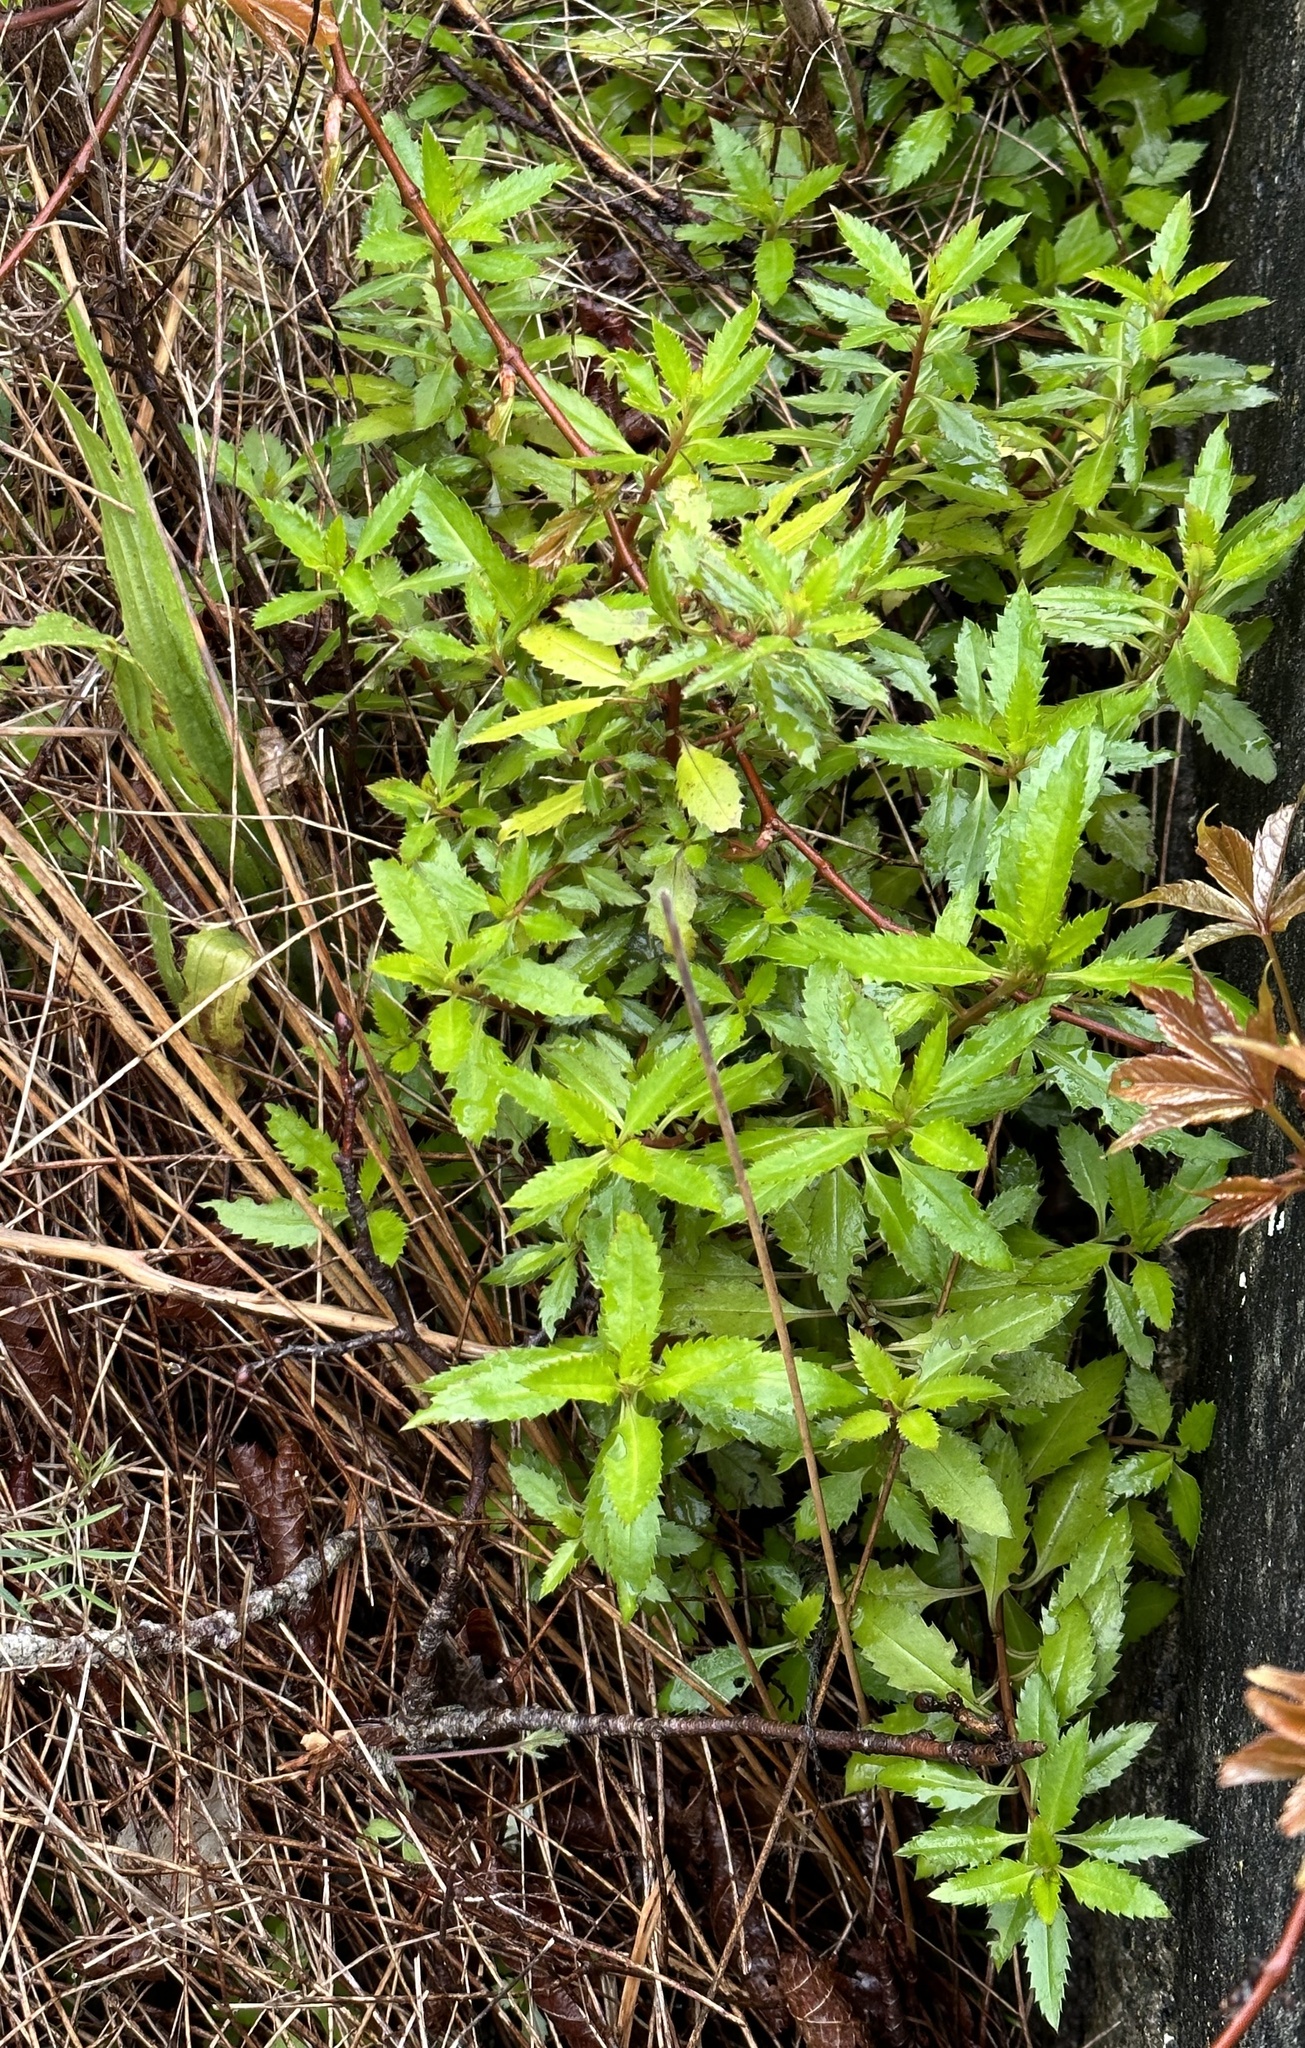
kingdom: Plantae
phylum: Tracheophyta
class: Magnoliopsida
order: Saxifragales
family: Haloragaceae
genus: Haloragis
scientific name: Haloragis erecta
